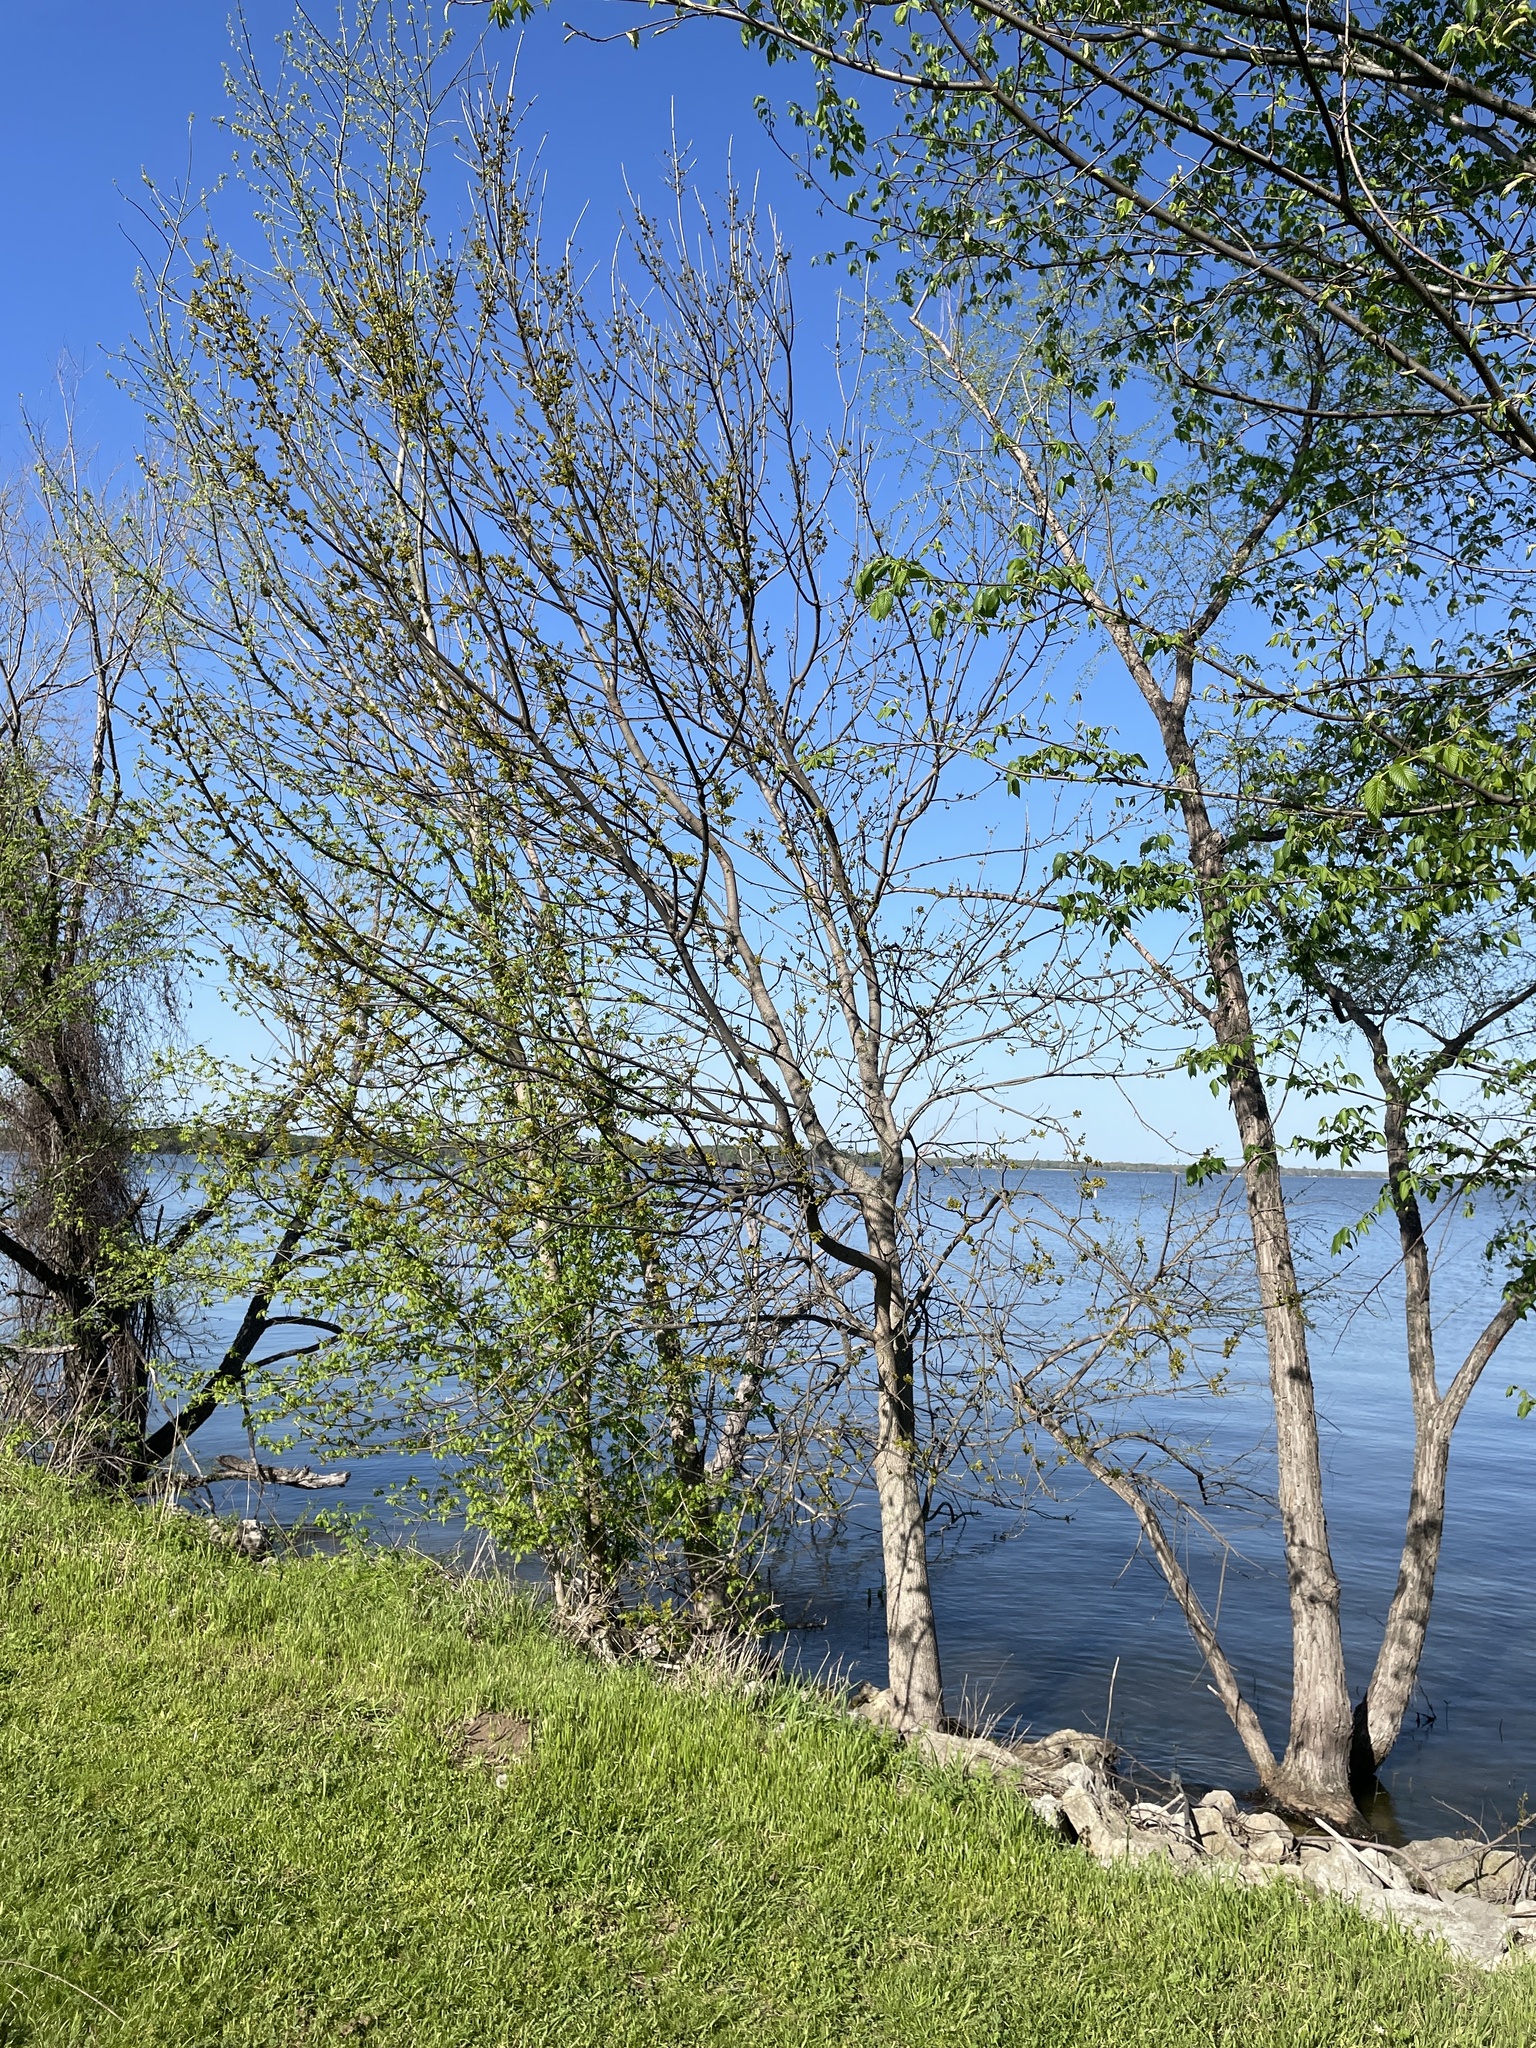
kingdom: Plantae
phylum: Tracheophyta
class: Magnoliopsida
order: Lamiales
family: Oleaceae
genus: Fraxinus
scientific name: Fraxinus pennsylvanica
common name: Green ash
